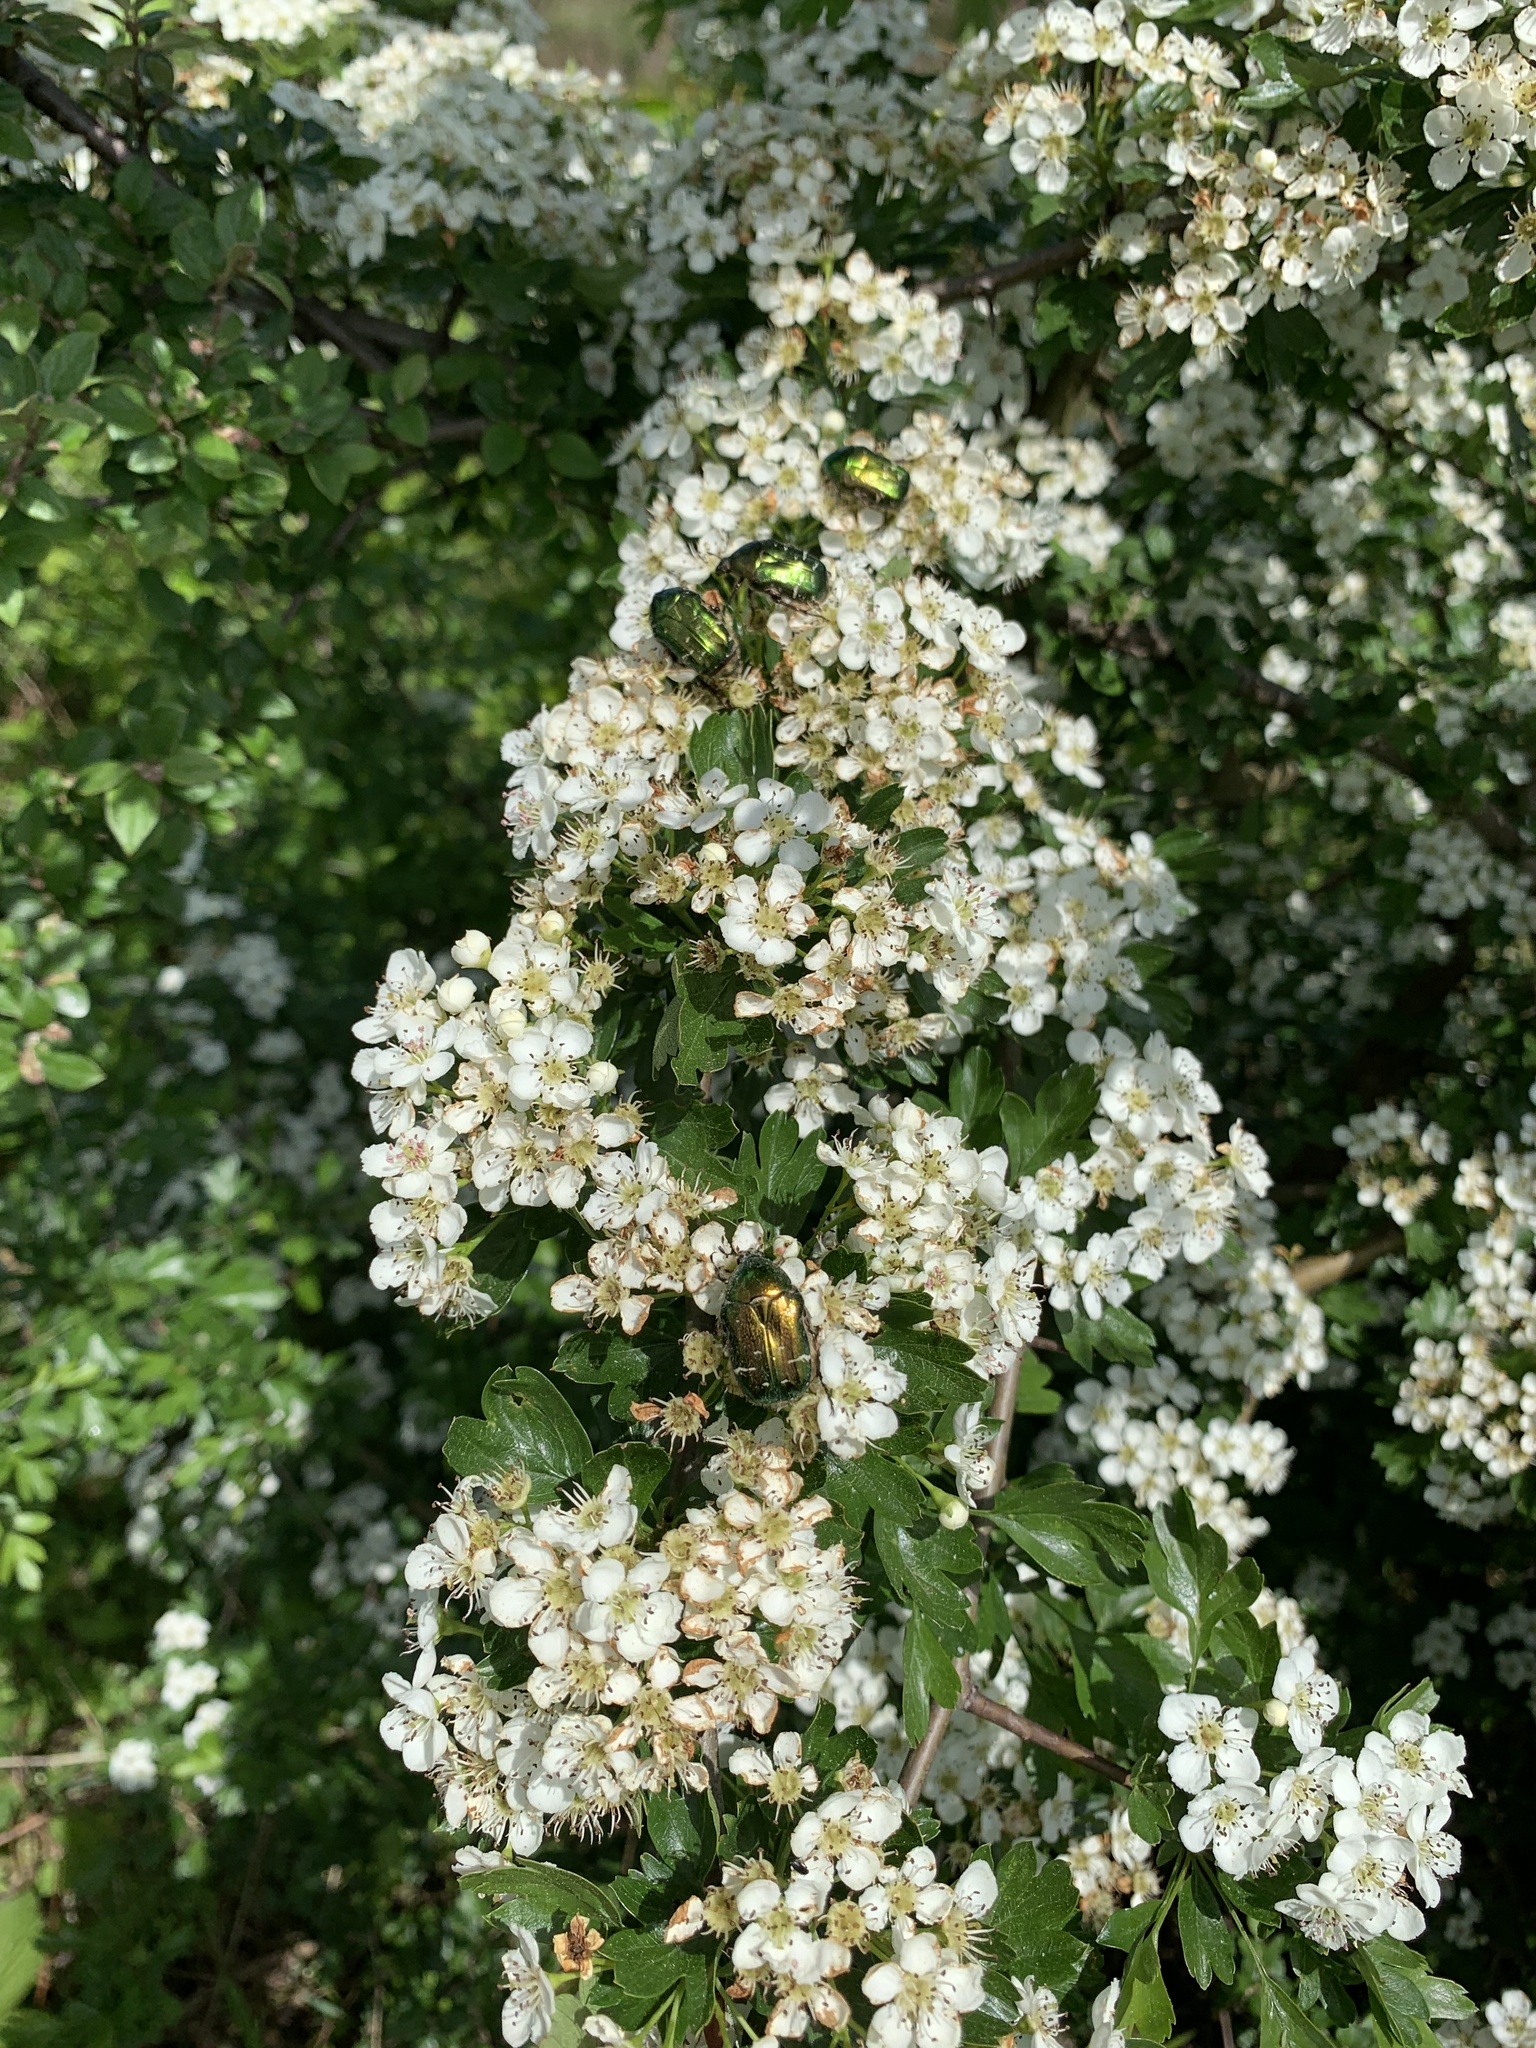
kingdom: Animalia
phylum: Arthropoda
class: Insecta
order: Coleoptera
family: Scarabaeidae
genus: Cetonia
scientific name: Cetonia aurata
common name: Rose chafer
